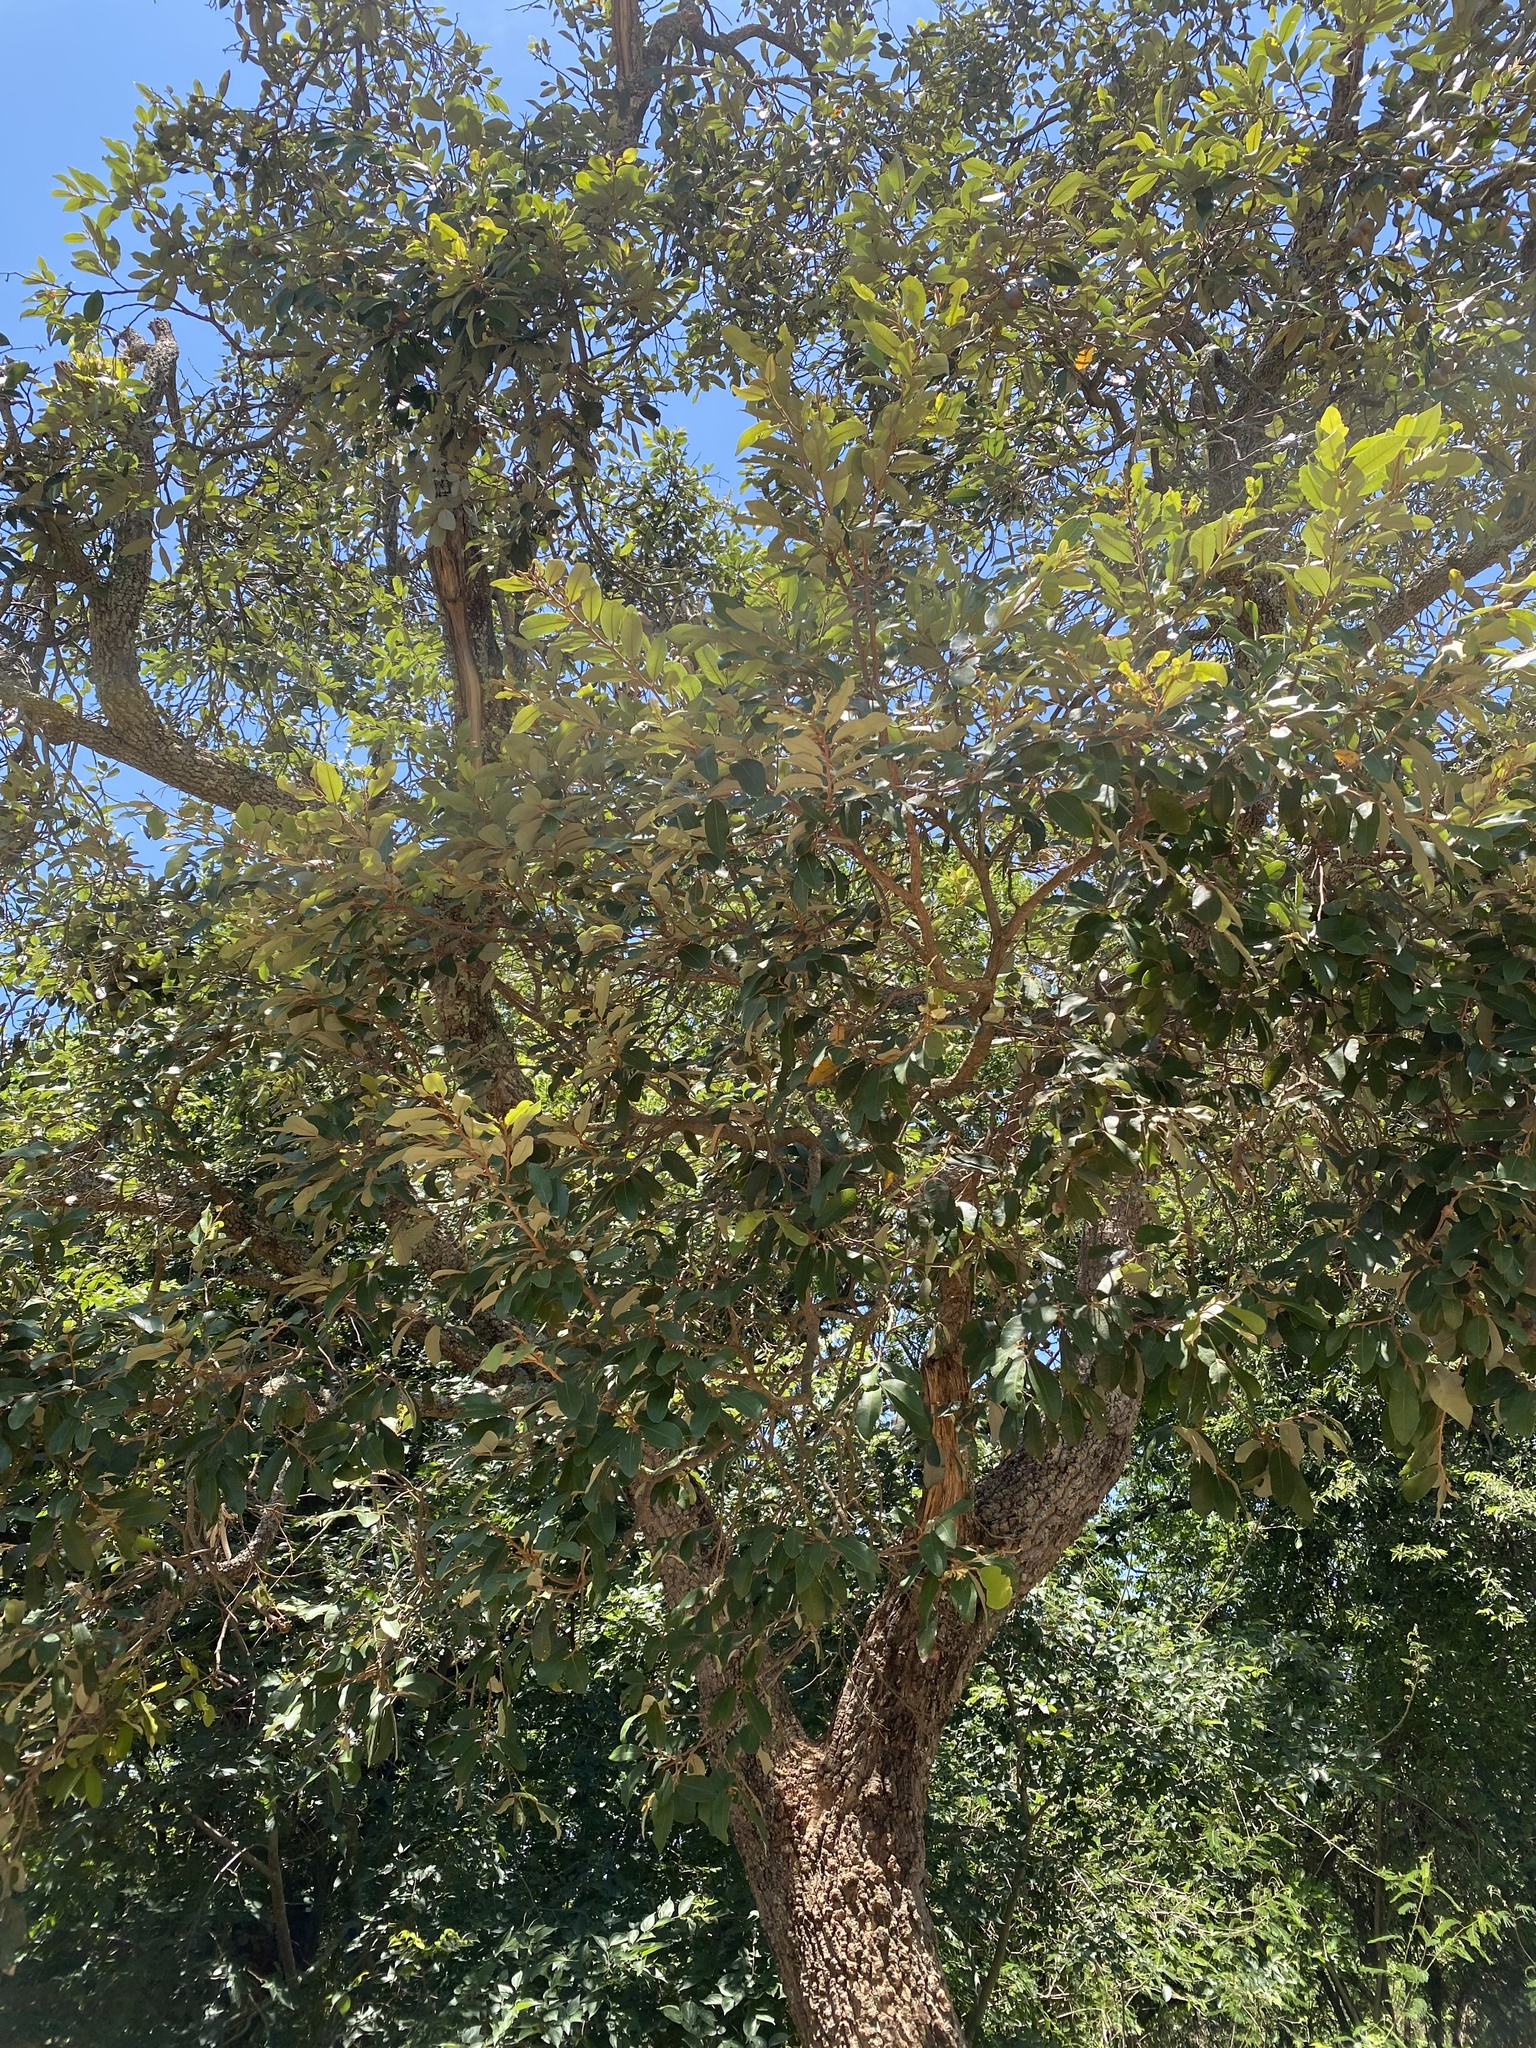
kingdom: Plantae
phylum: Tracheophyta
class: Magnoliopsida
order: Malpighiales
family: Chrysobalanaceae
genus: Parinari
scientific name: Parinari curatellifolia
